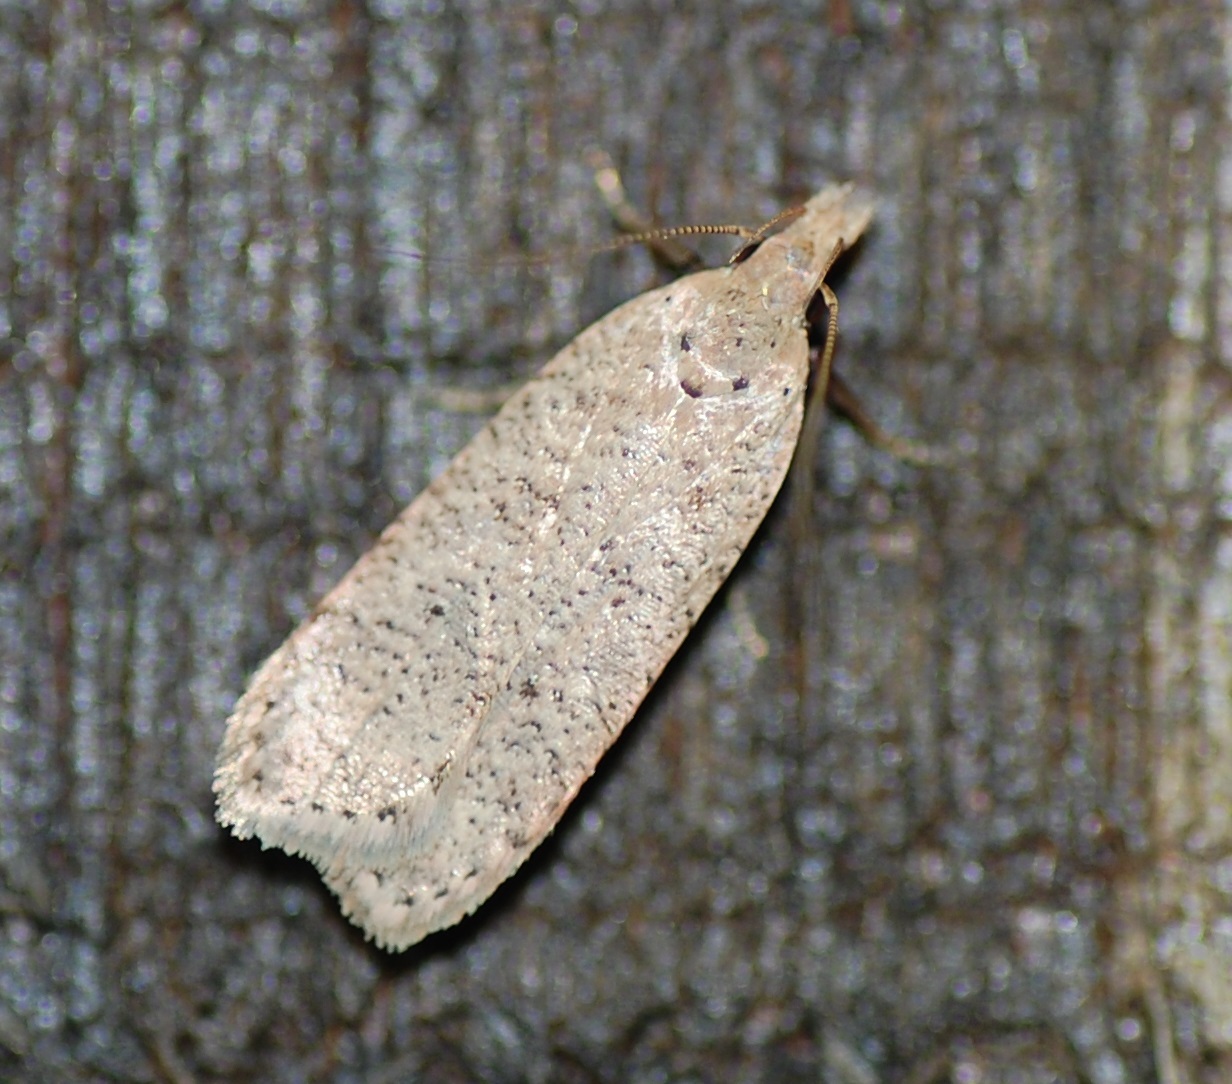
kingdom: Animalia
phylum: Arthropoda
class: Insecta
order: Lepidoptera
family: Gelechiidae
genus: Dichomeris
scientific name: Dichomeris georgiella
